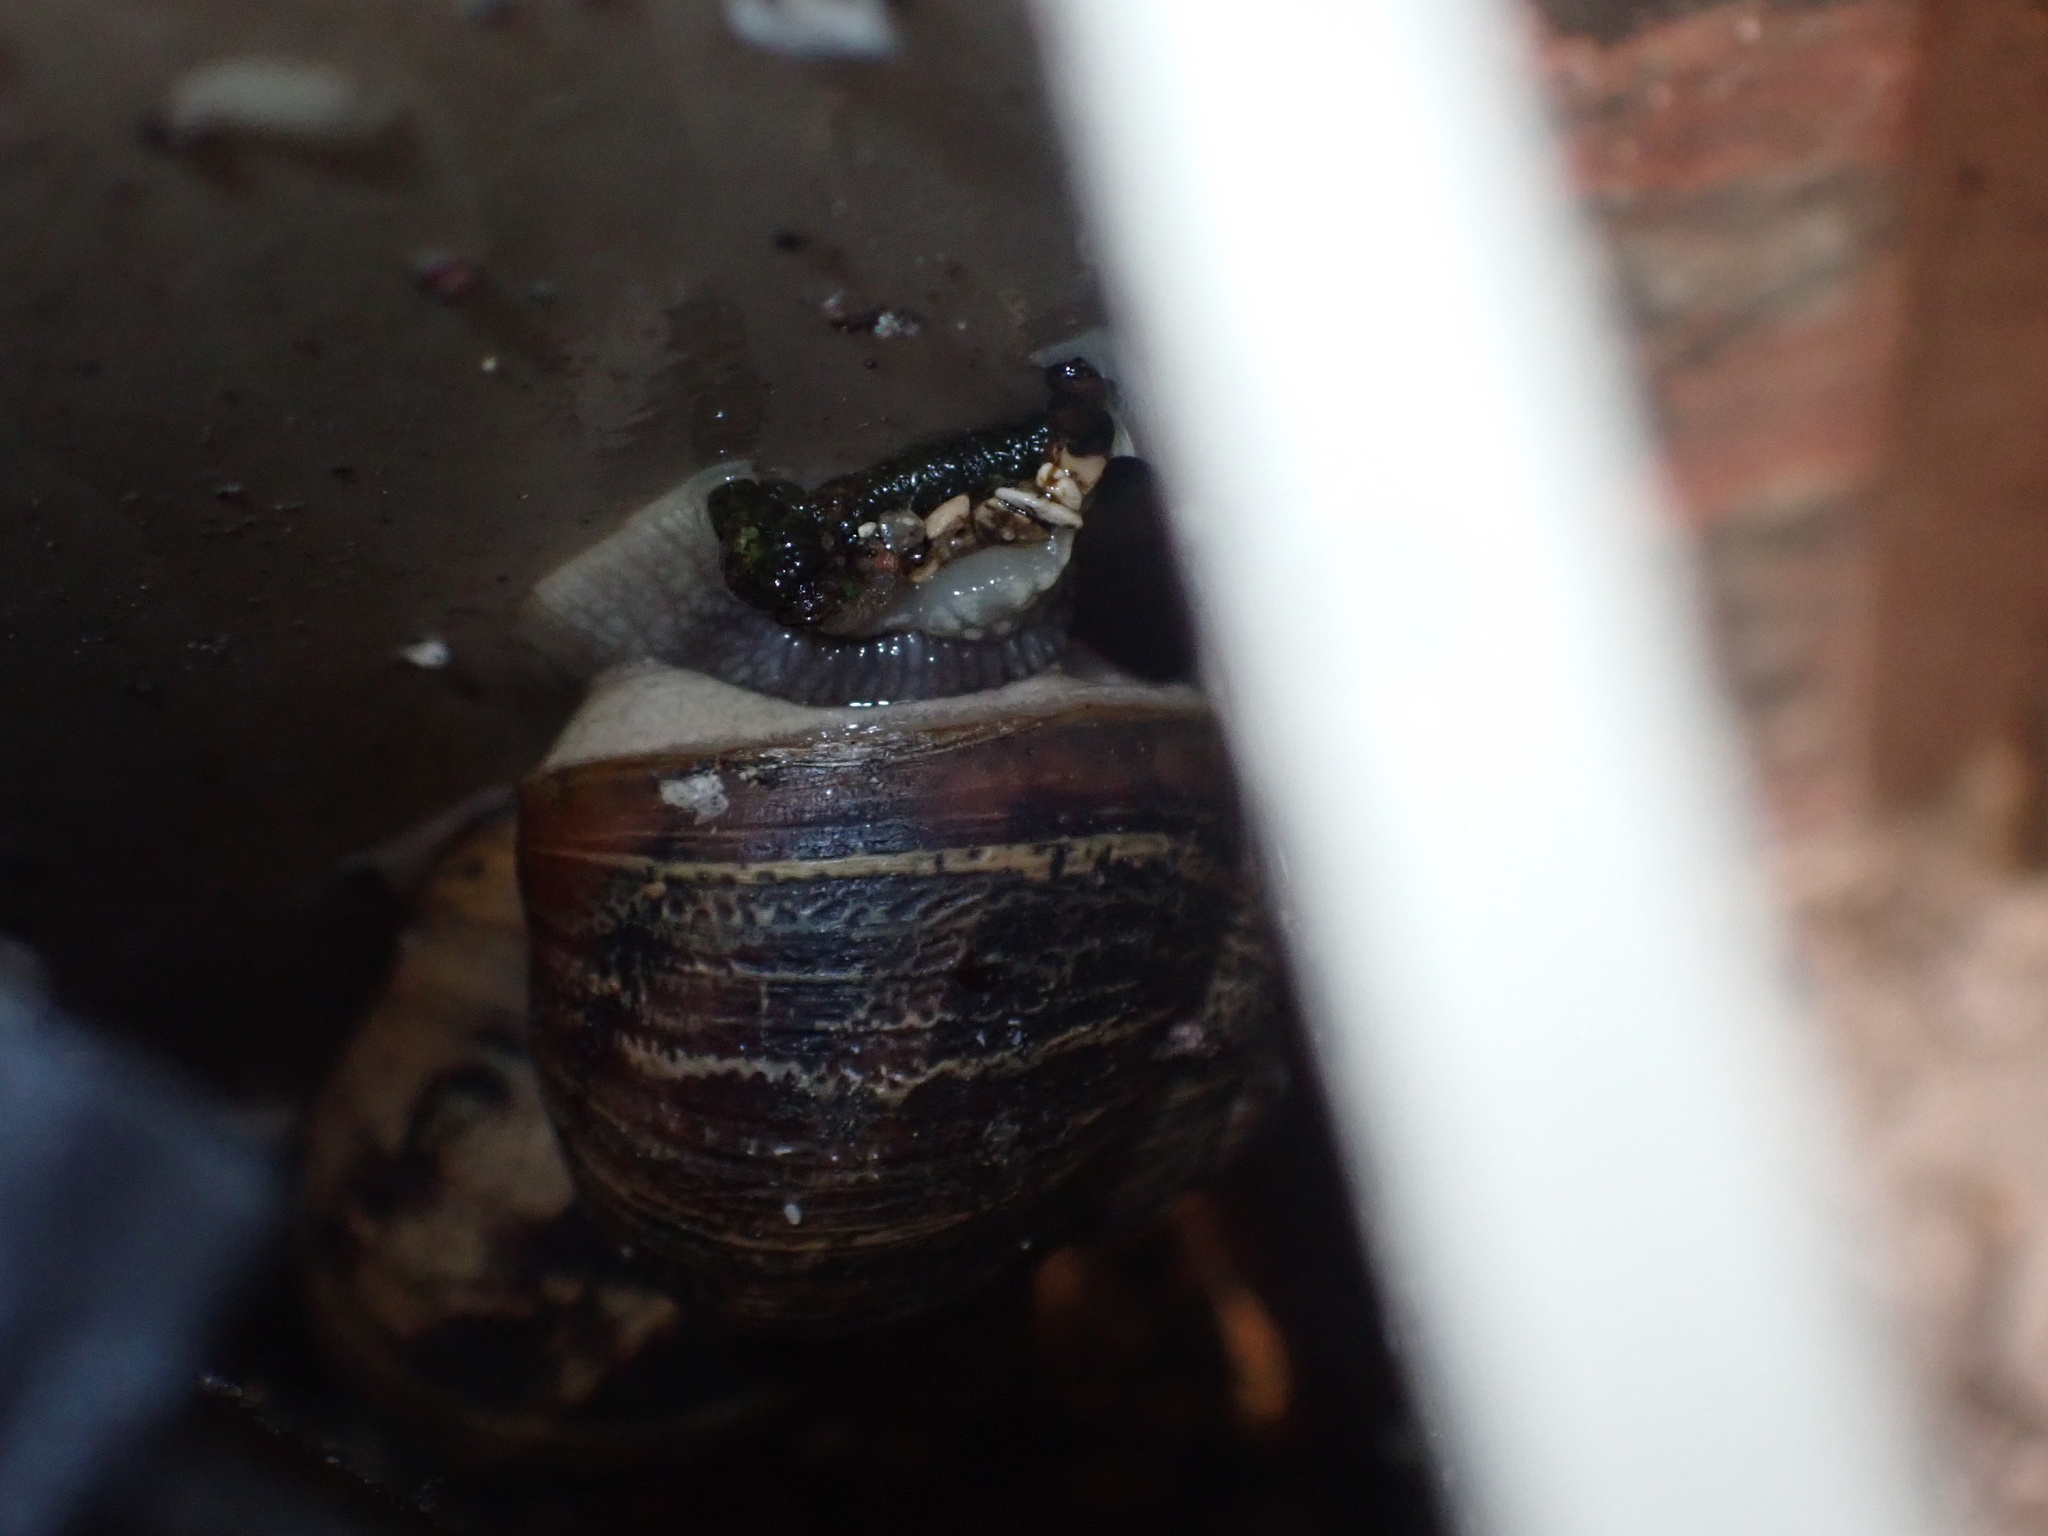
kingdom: Animalia
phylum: Mollusca
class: Gastropoda
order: Stylommatophora
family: Helicidae
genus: Cornu
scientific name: Cornu aspersum
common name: Brown garden snail
